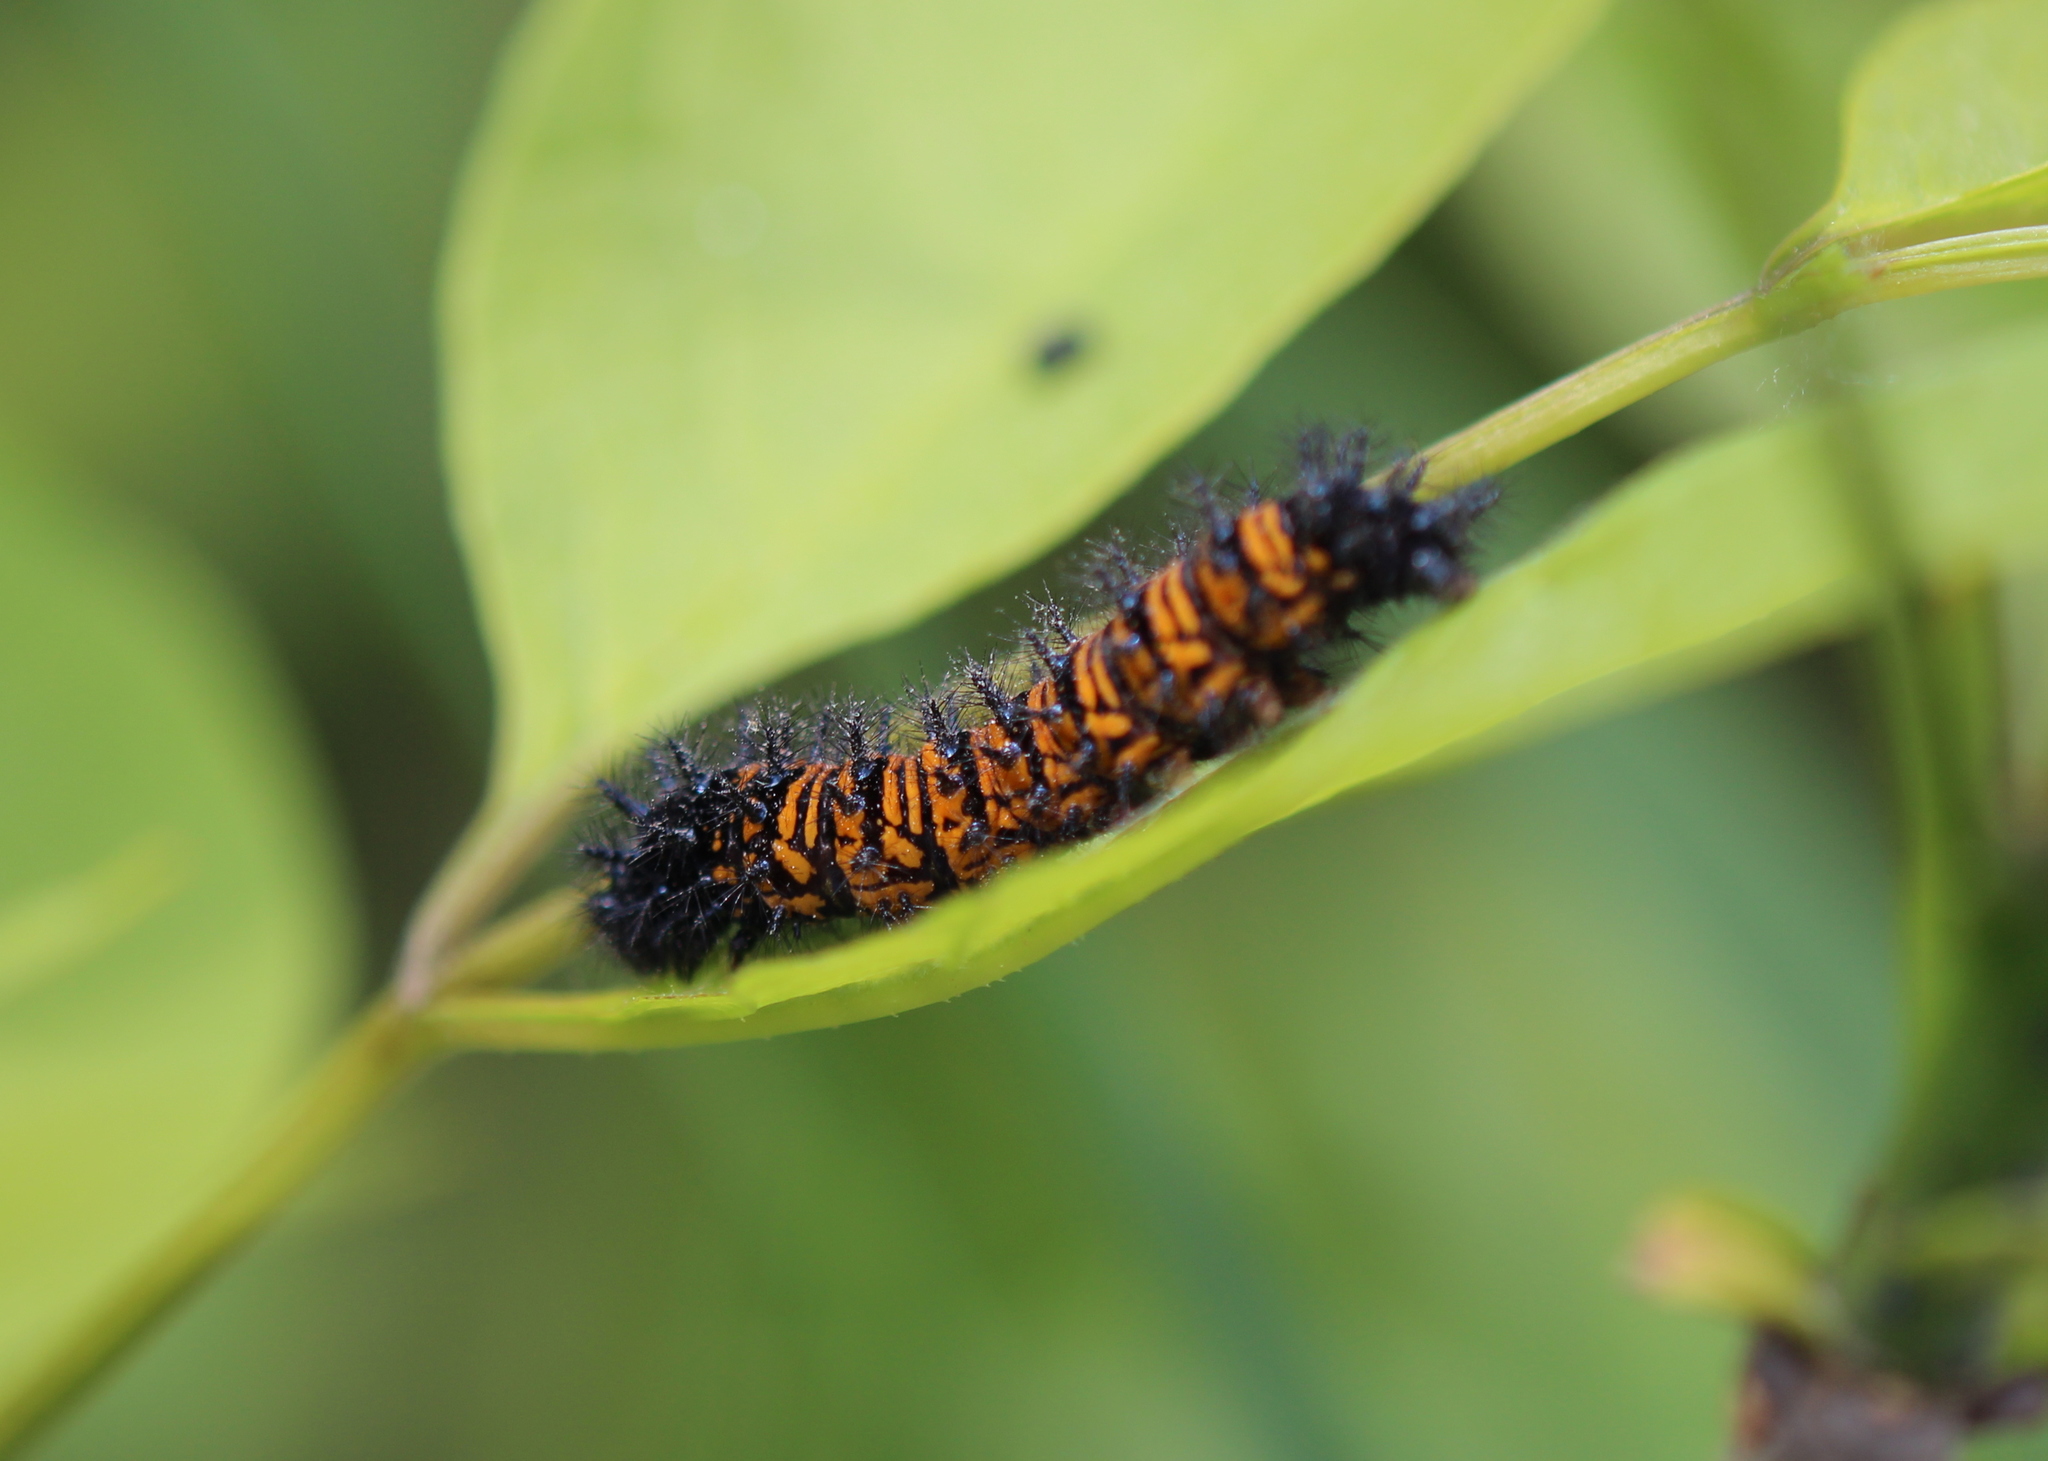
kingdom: Animalia
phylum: Arthropoda
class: Insecta
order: Lepidoptera
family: Nymphalidae
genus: Euphydryas
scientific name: Euphydryas phaeton
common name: Baltimore checkerspot
